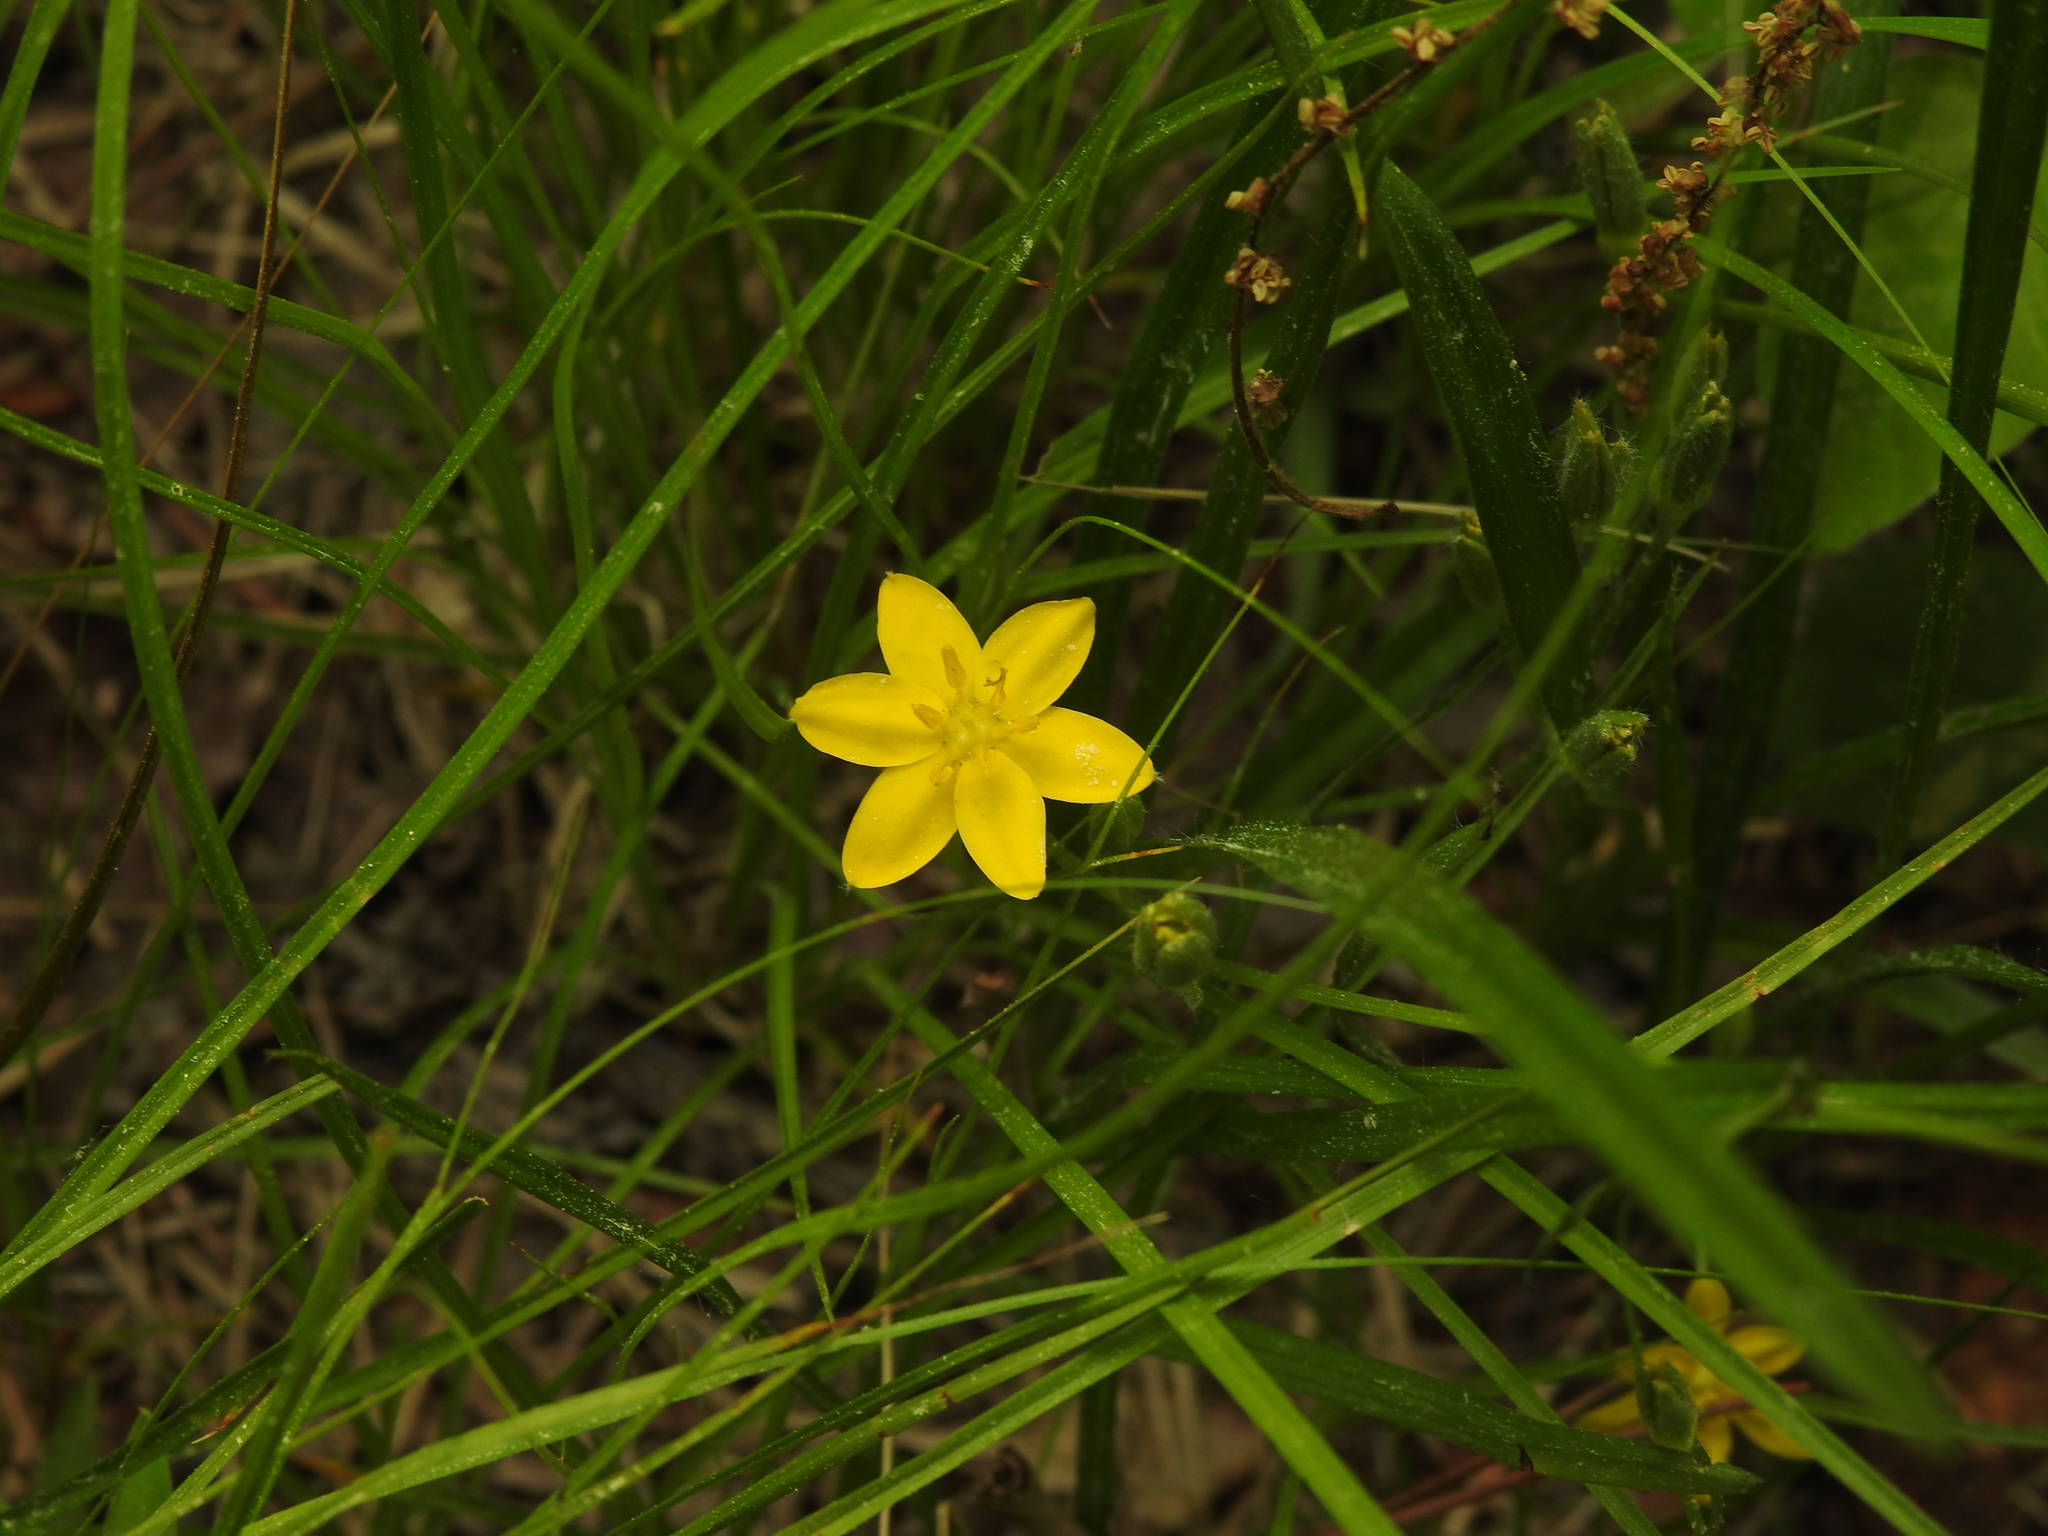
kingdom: Plantae
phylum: Tracheophyta
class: Liliopsida
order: Asparagales
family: Hypoxidaceae
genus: Hypoxis
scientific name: Hypoxis hirsuta
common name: Common goldstar
